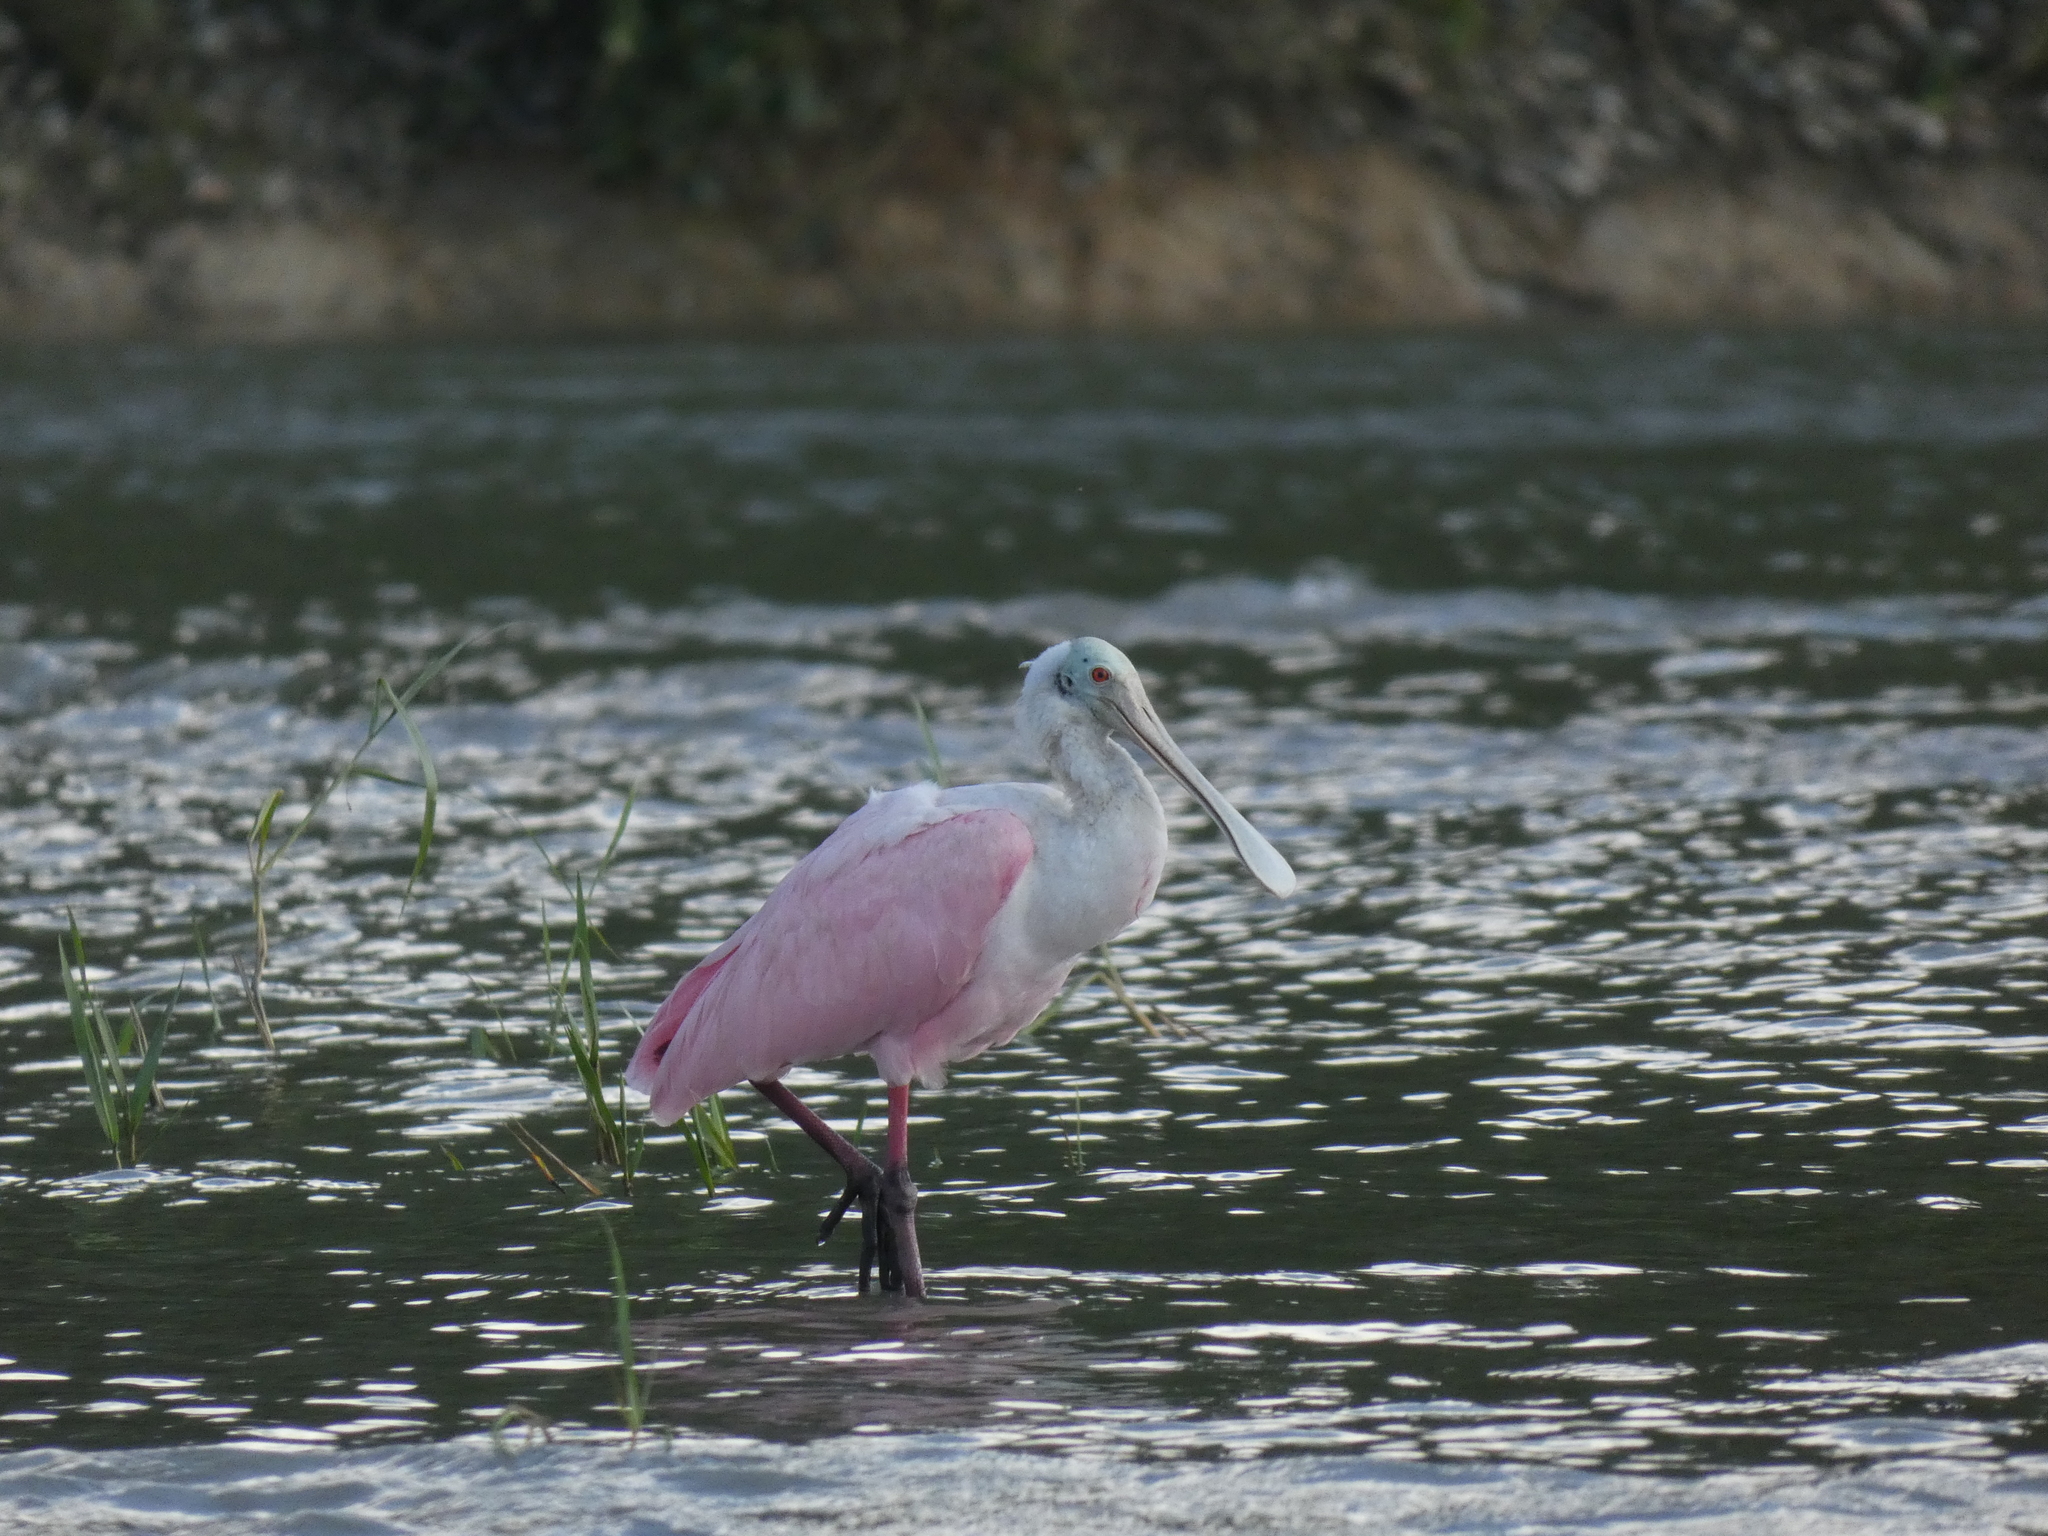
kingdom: Animalia
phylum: Chordata
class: Aves
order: Pelecaniformes
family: Threskiornithidae
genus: Platalea
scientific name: Platalea ajaja
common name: Roseate spoonbill
